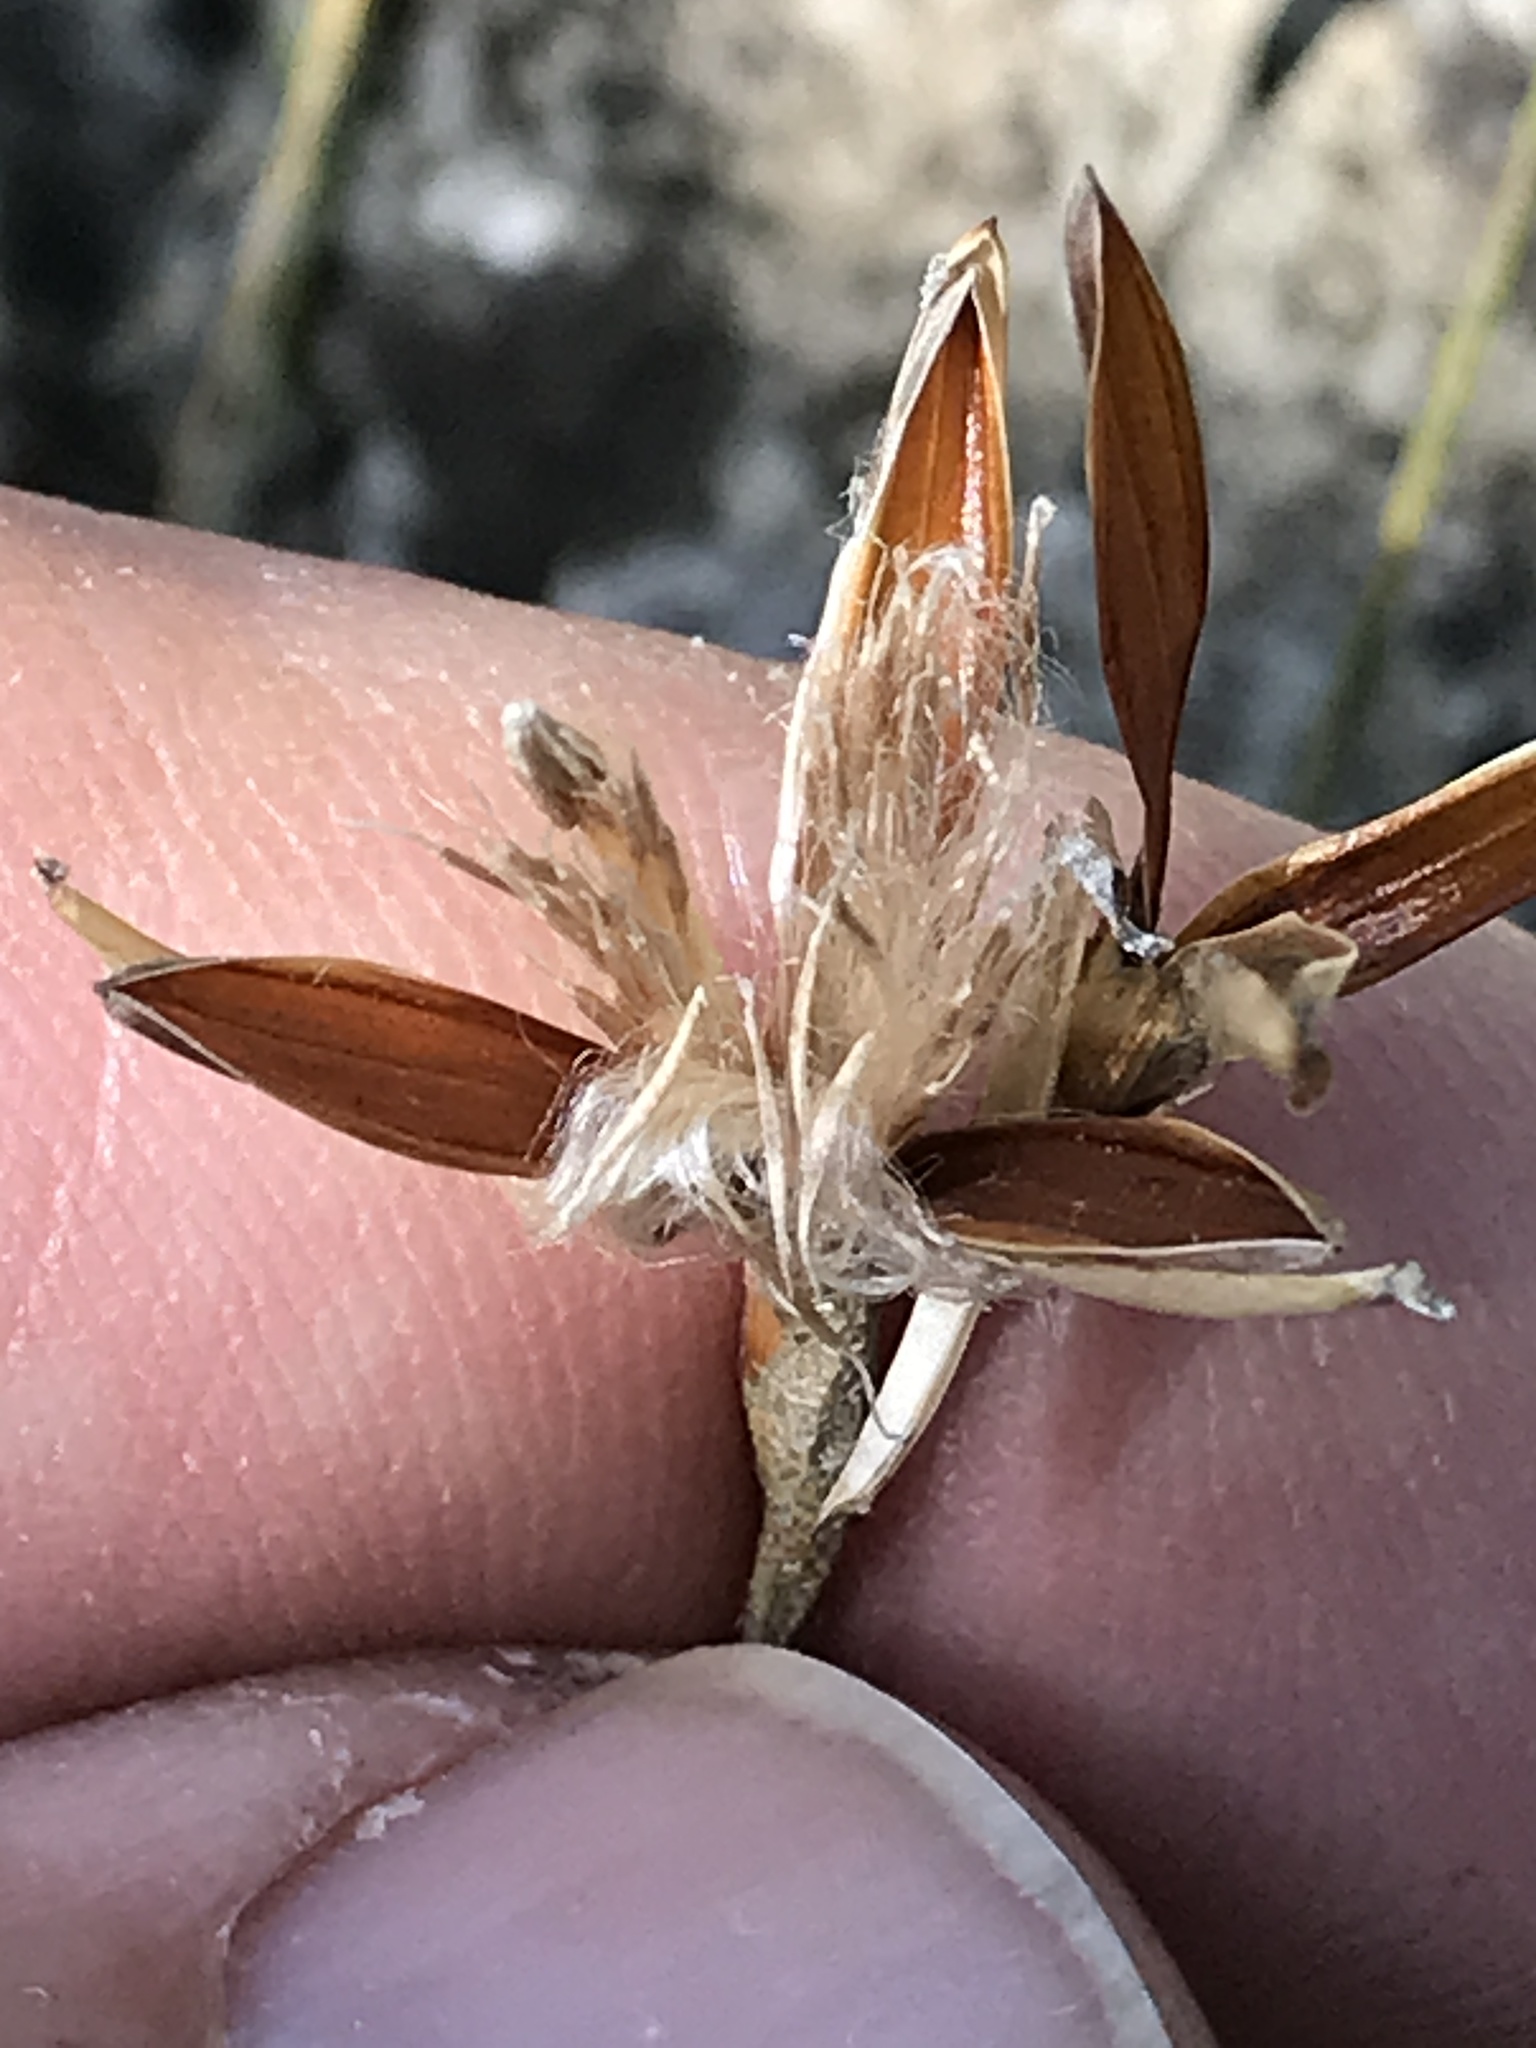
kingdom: Plantae
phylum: Tracheophyta
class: Liliopsida
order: Poales
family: Bromeliaceae
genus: Tillandsia
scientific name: Tillandsia recurvata
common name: Small ballmoss
